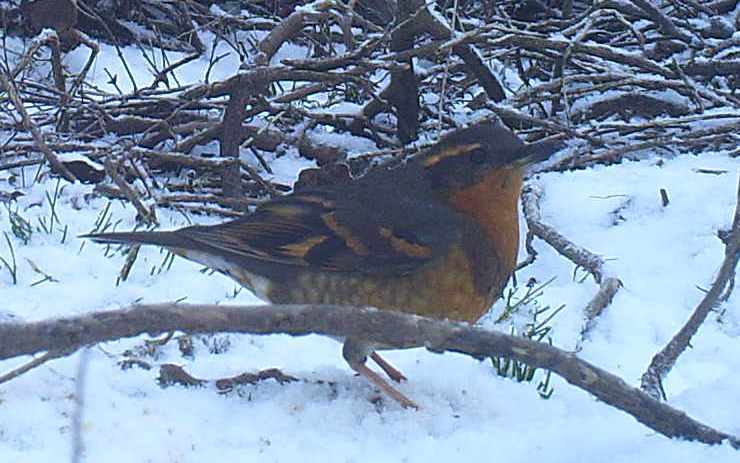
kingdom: Animalia
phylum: Chordata
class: Aves
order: Passeriformes
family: Turdidae
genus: Ixoreus
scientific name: Ixoreus naevius
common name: Varied thrush
